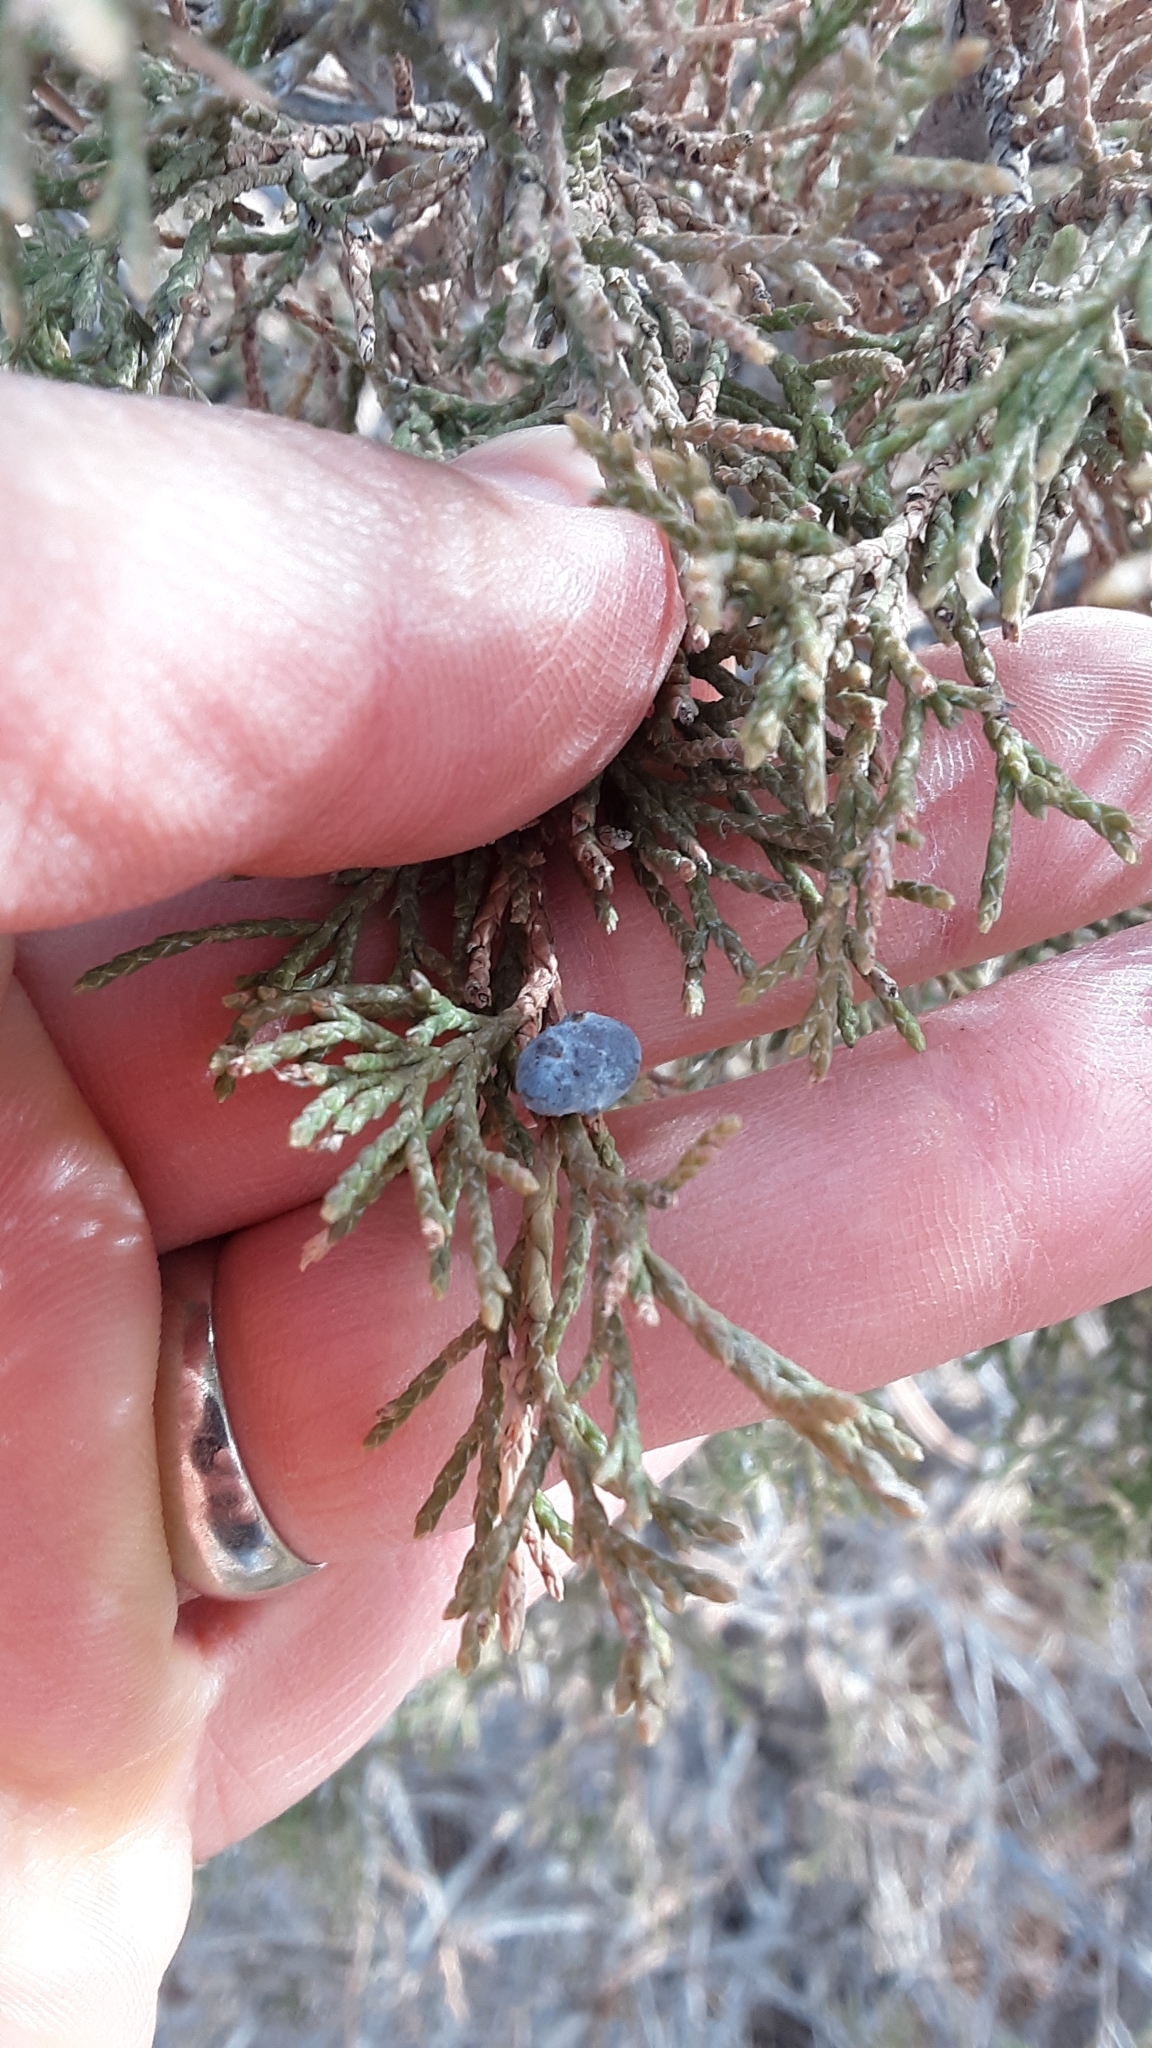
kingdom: Plantae
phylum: Tracheophyta
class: Pinopsida
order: Pinales
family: Cupressaceae
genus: Juniperus
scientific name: Juniperus scopulorum
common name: Rocky mountain juniper
